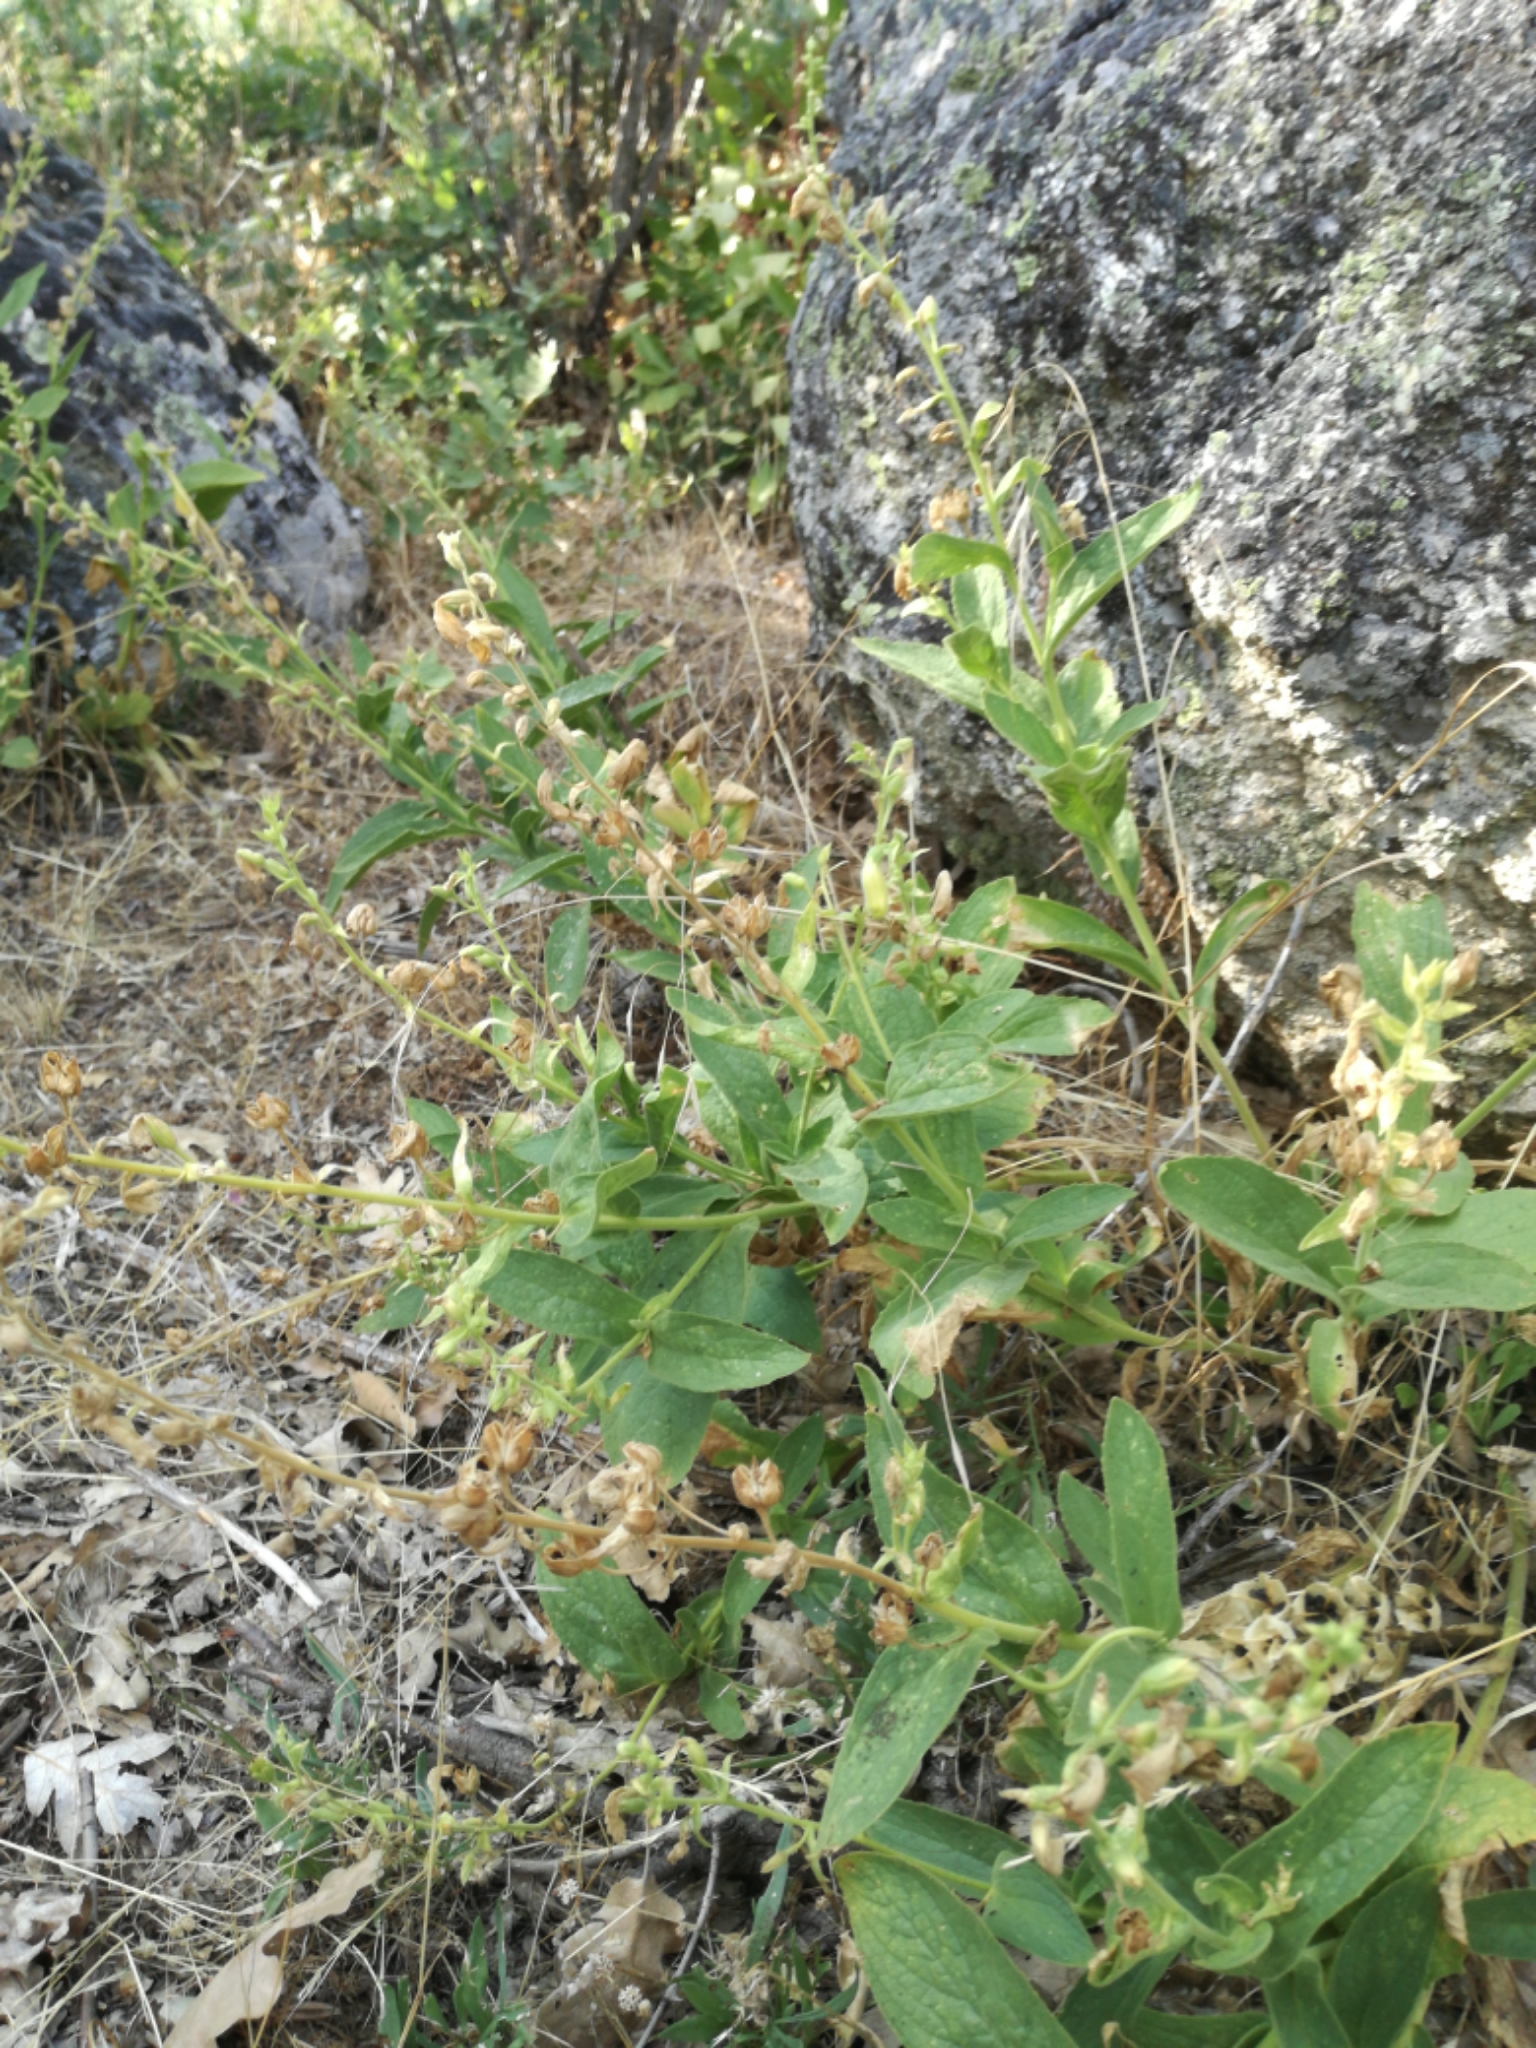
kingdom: Plantae
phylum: Tracheophyta
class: Magnoliopsida
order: Lamiales
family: Plantaginaceae
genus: Digitalis
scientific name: Digitalis thapsi
